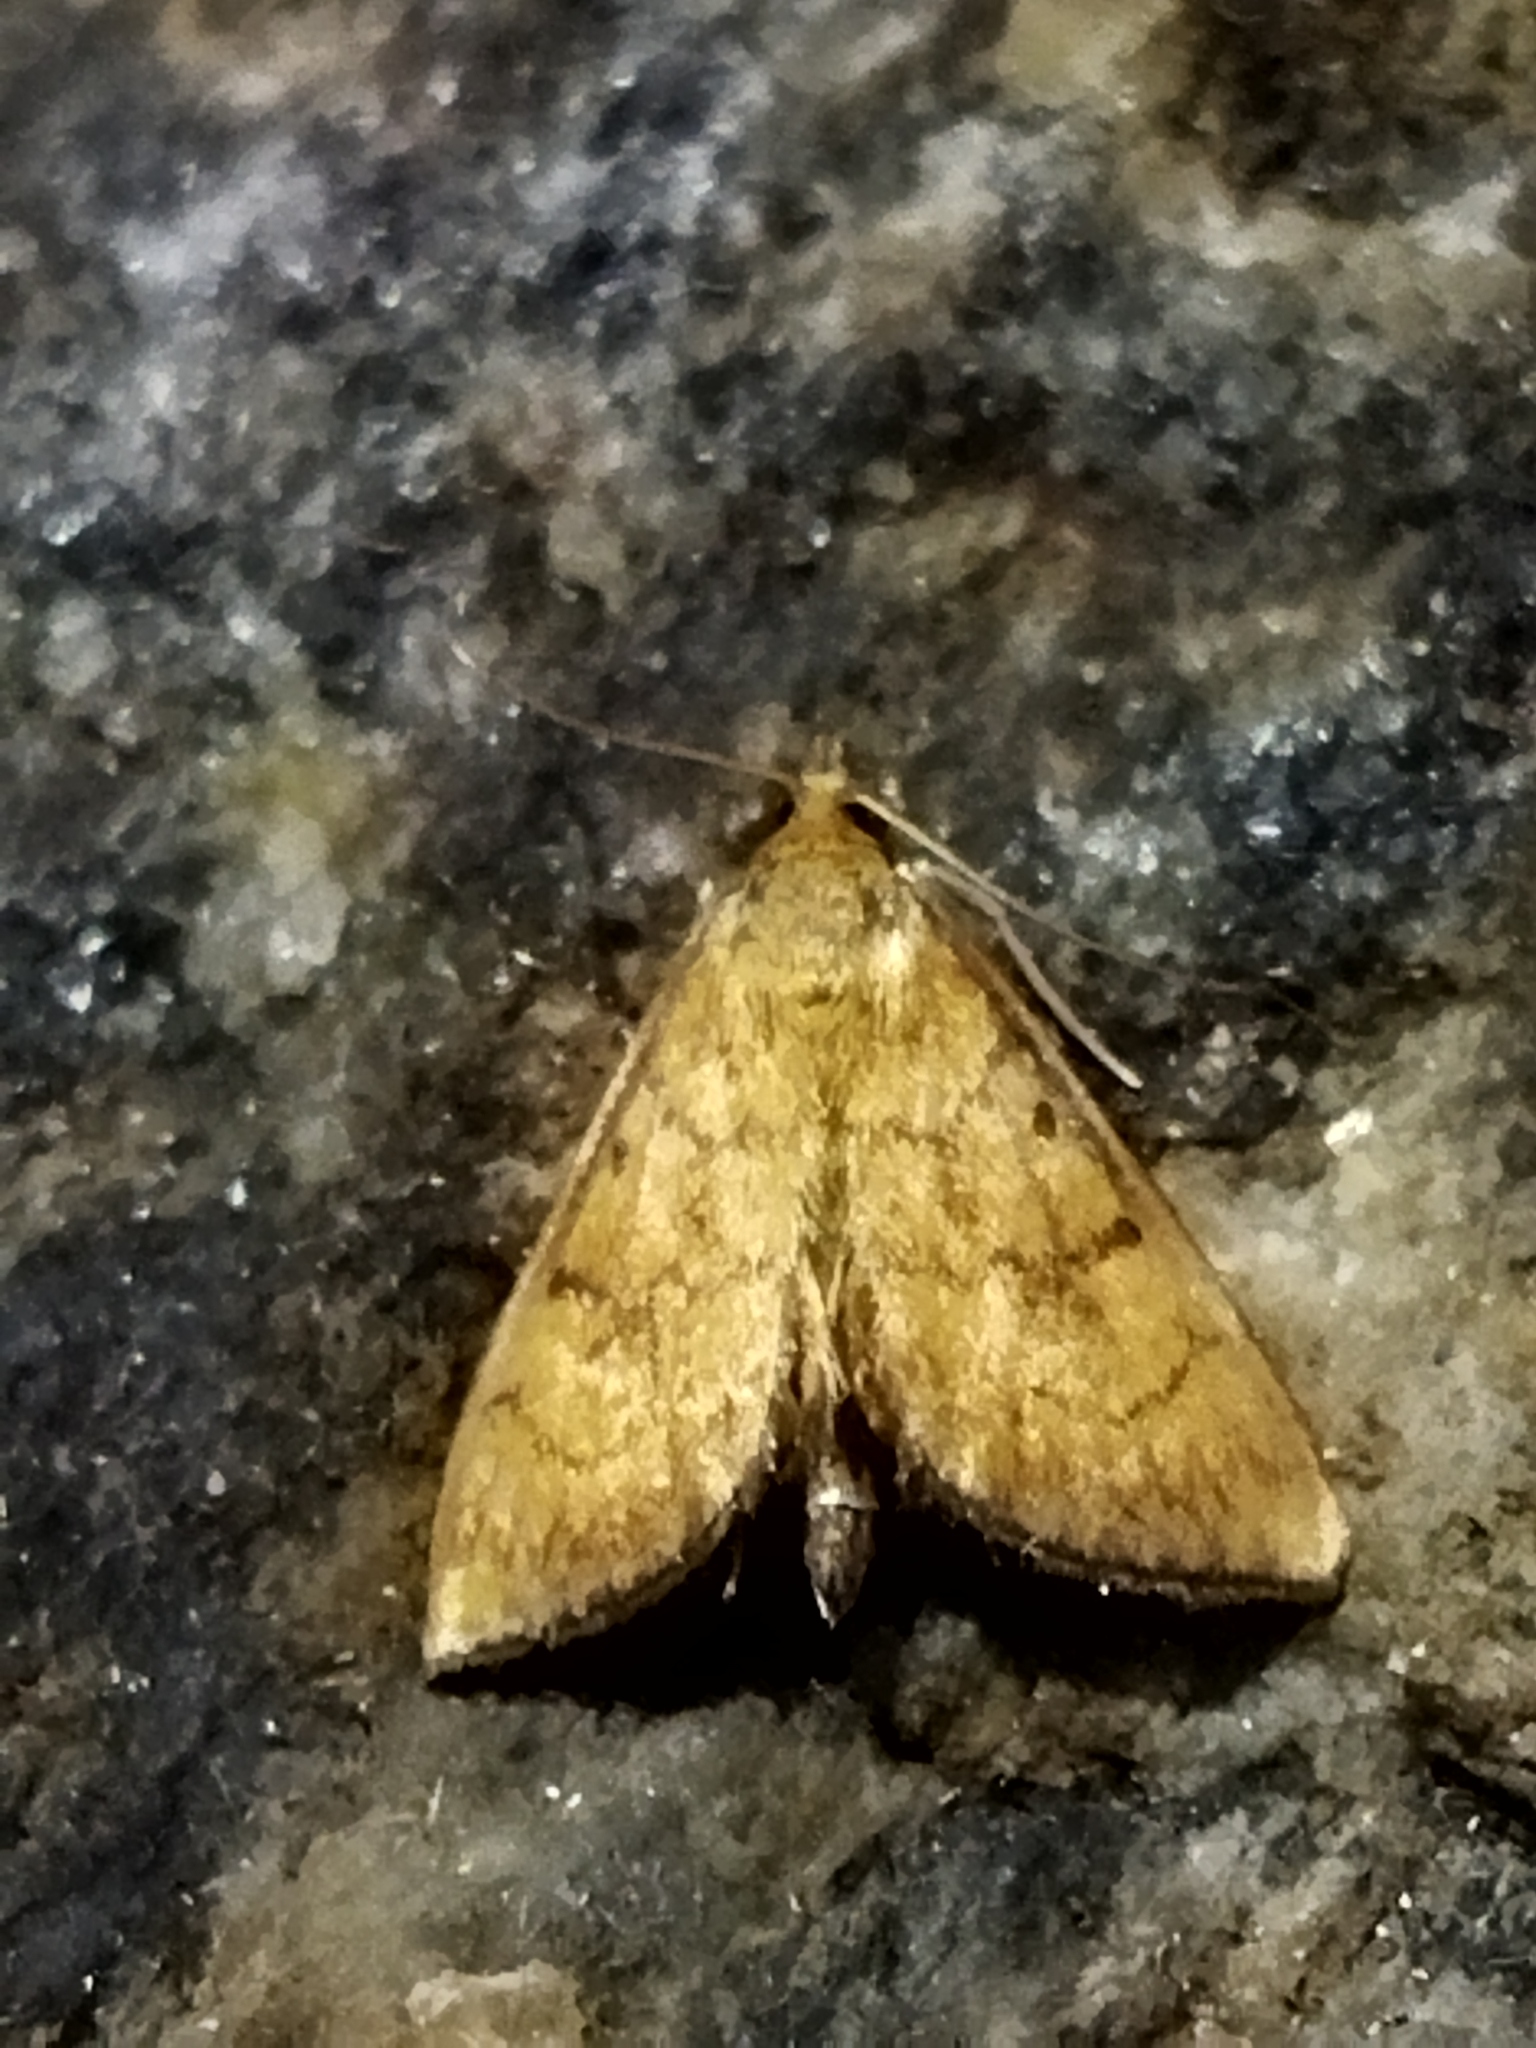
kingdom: Animalia
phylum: Arthropoda
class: Insecta
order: Lepidoptera
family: Crambidae
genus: Ecpyrrhorrhoe
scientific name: Ecpyrrhorrhoe rubiginalis
